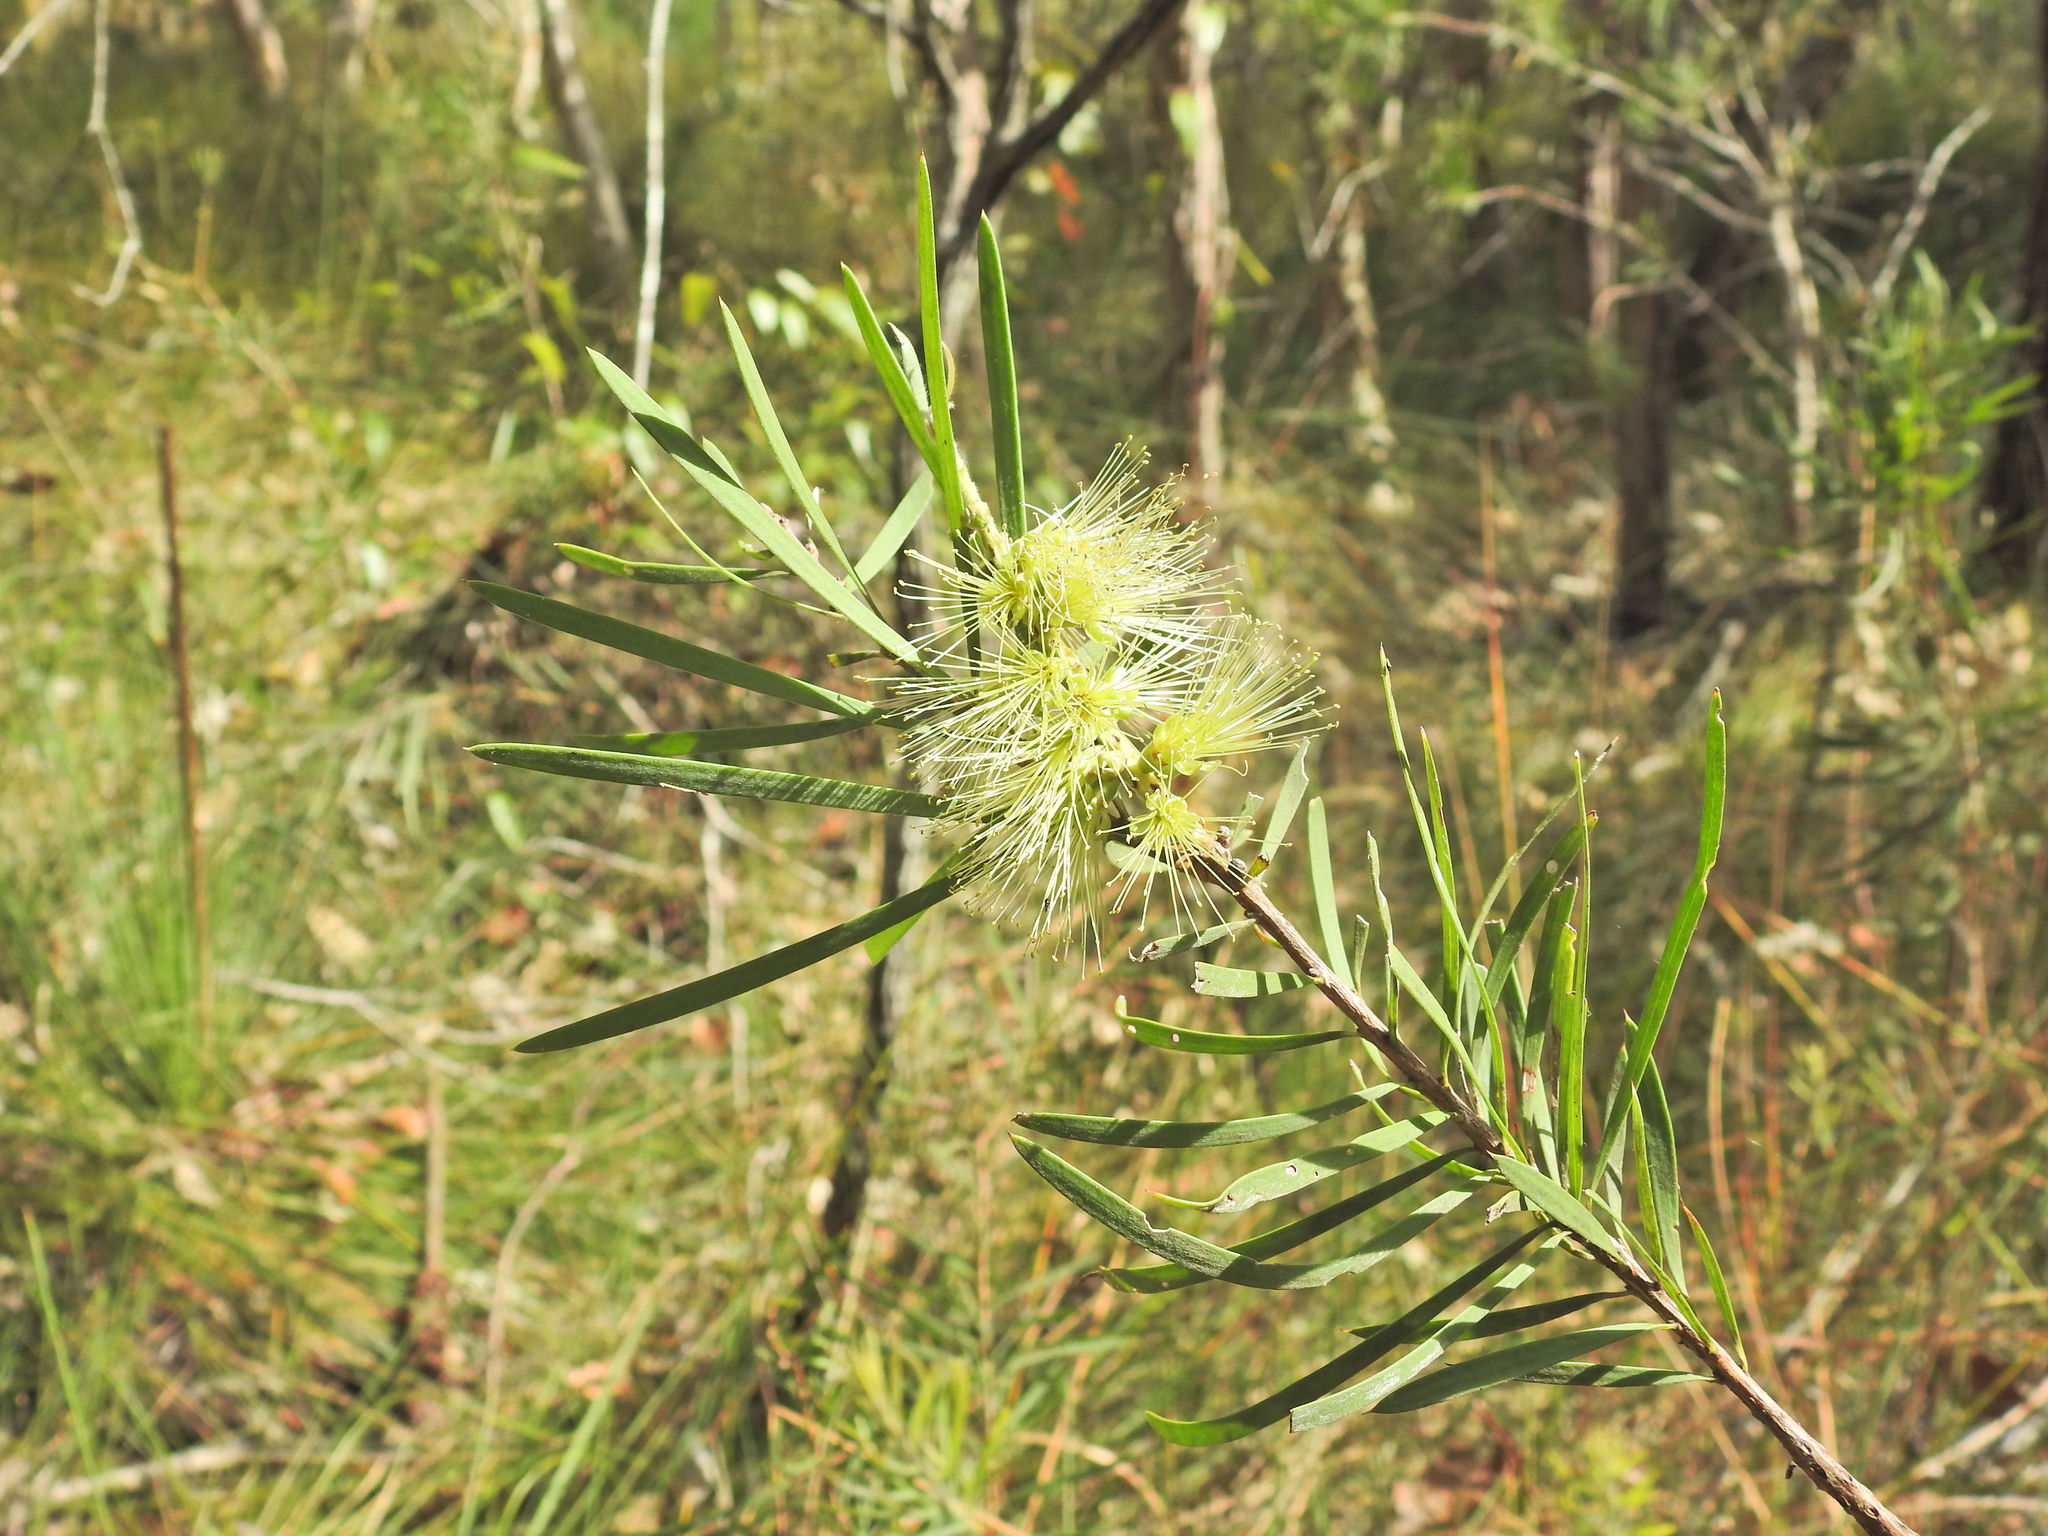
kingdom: Plantae
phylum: Tracheophyta
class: Magnoliopsida
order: Myrtales
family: Myrtaceae
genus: Callistemon
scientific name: Callistemon pachyphyllus
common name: Wallum bottlebrush
